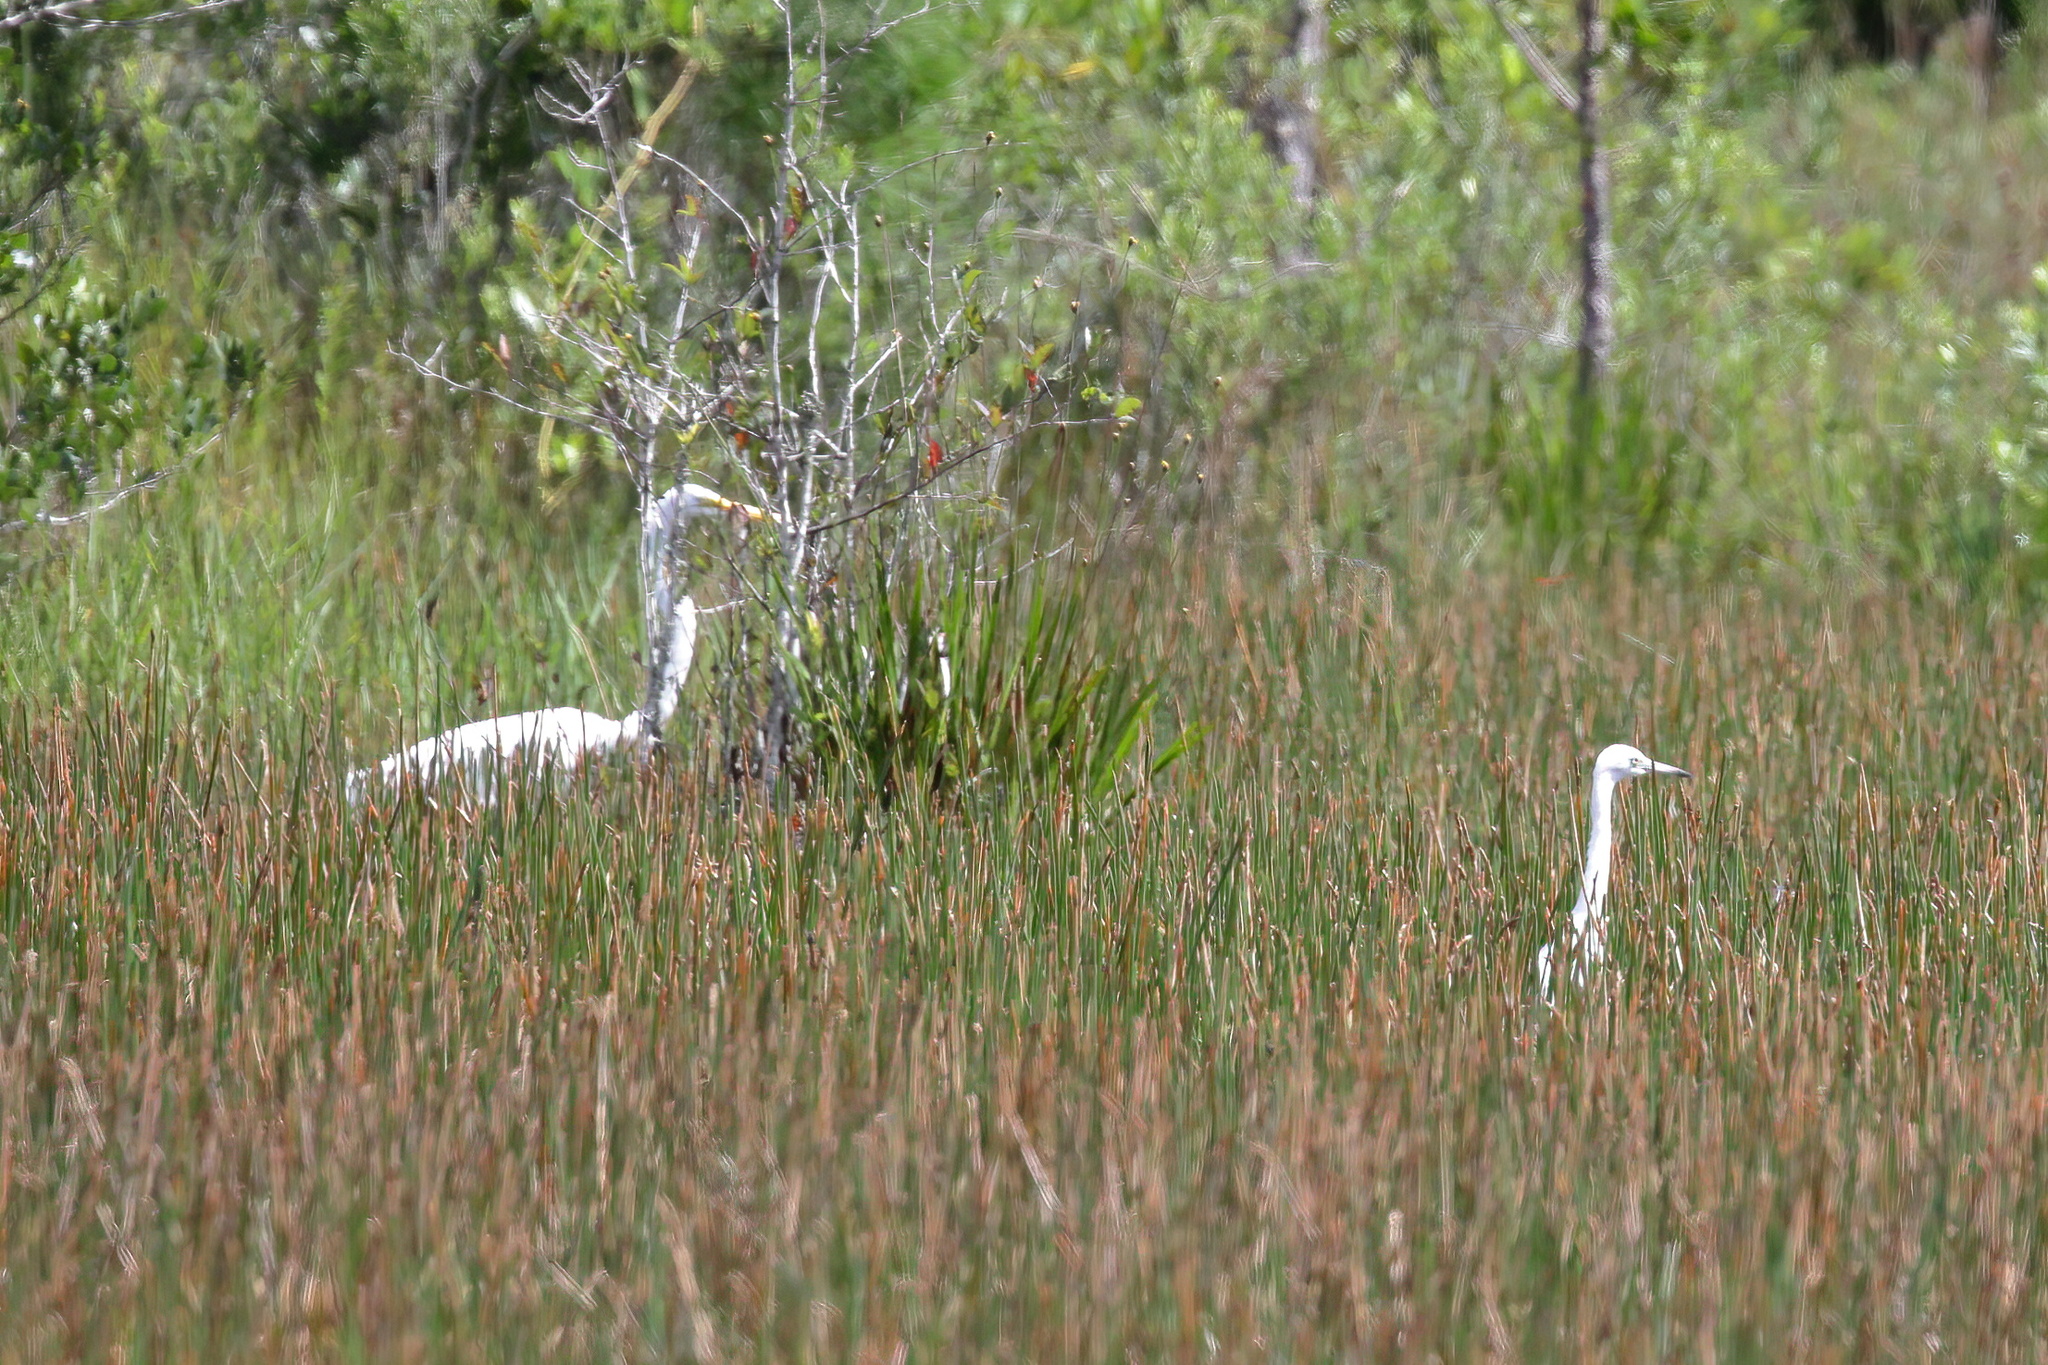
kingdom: Animalia
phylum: Chordata
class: Aves
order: Pelecaniformes
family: Ardeidae
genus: Egretta
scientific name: Egretta caerulea
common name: Little blue heron
